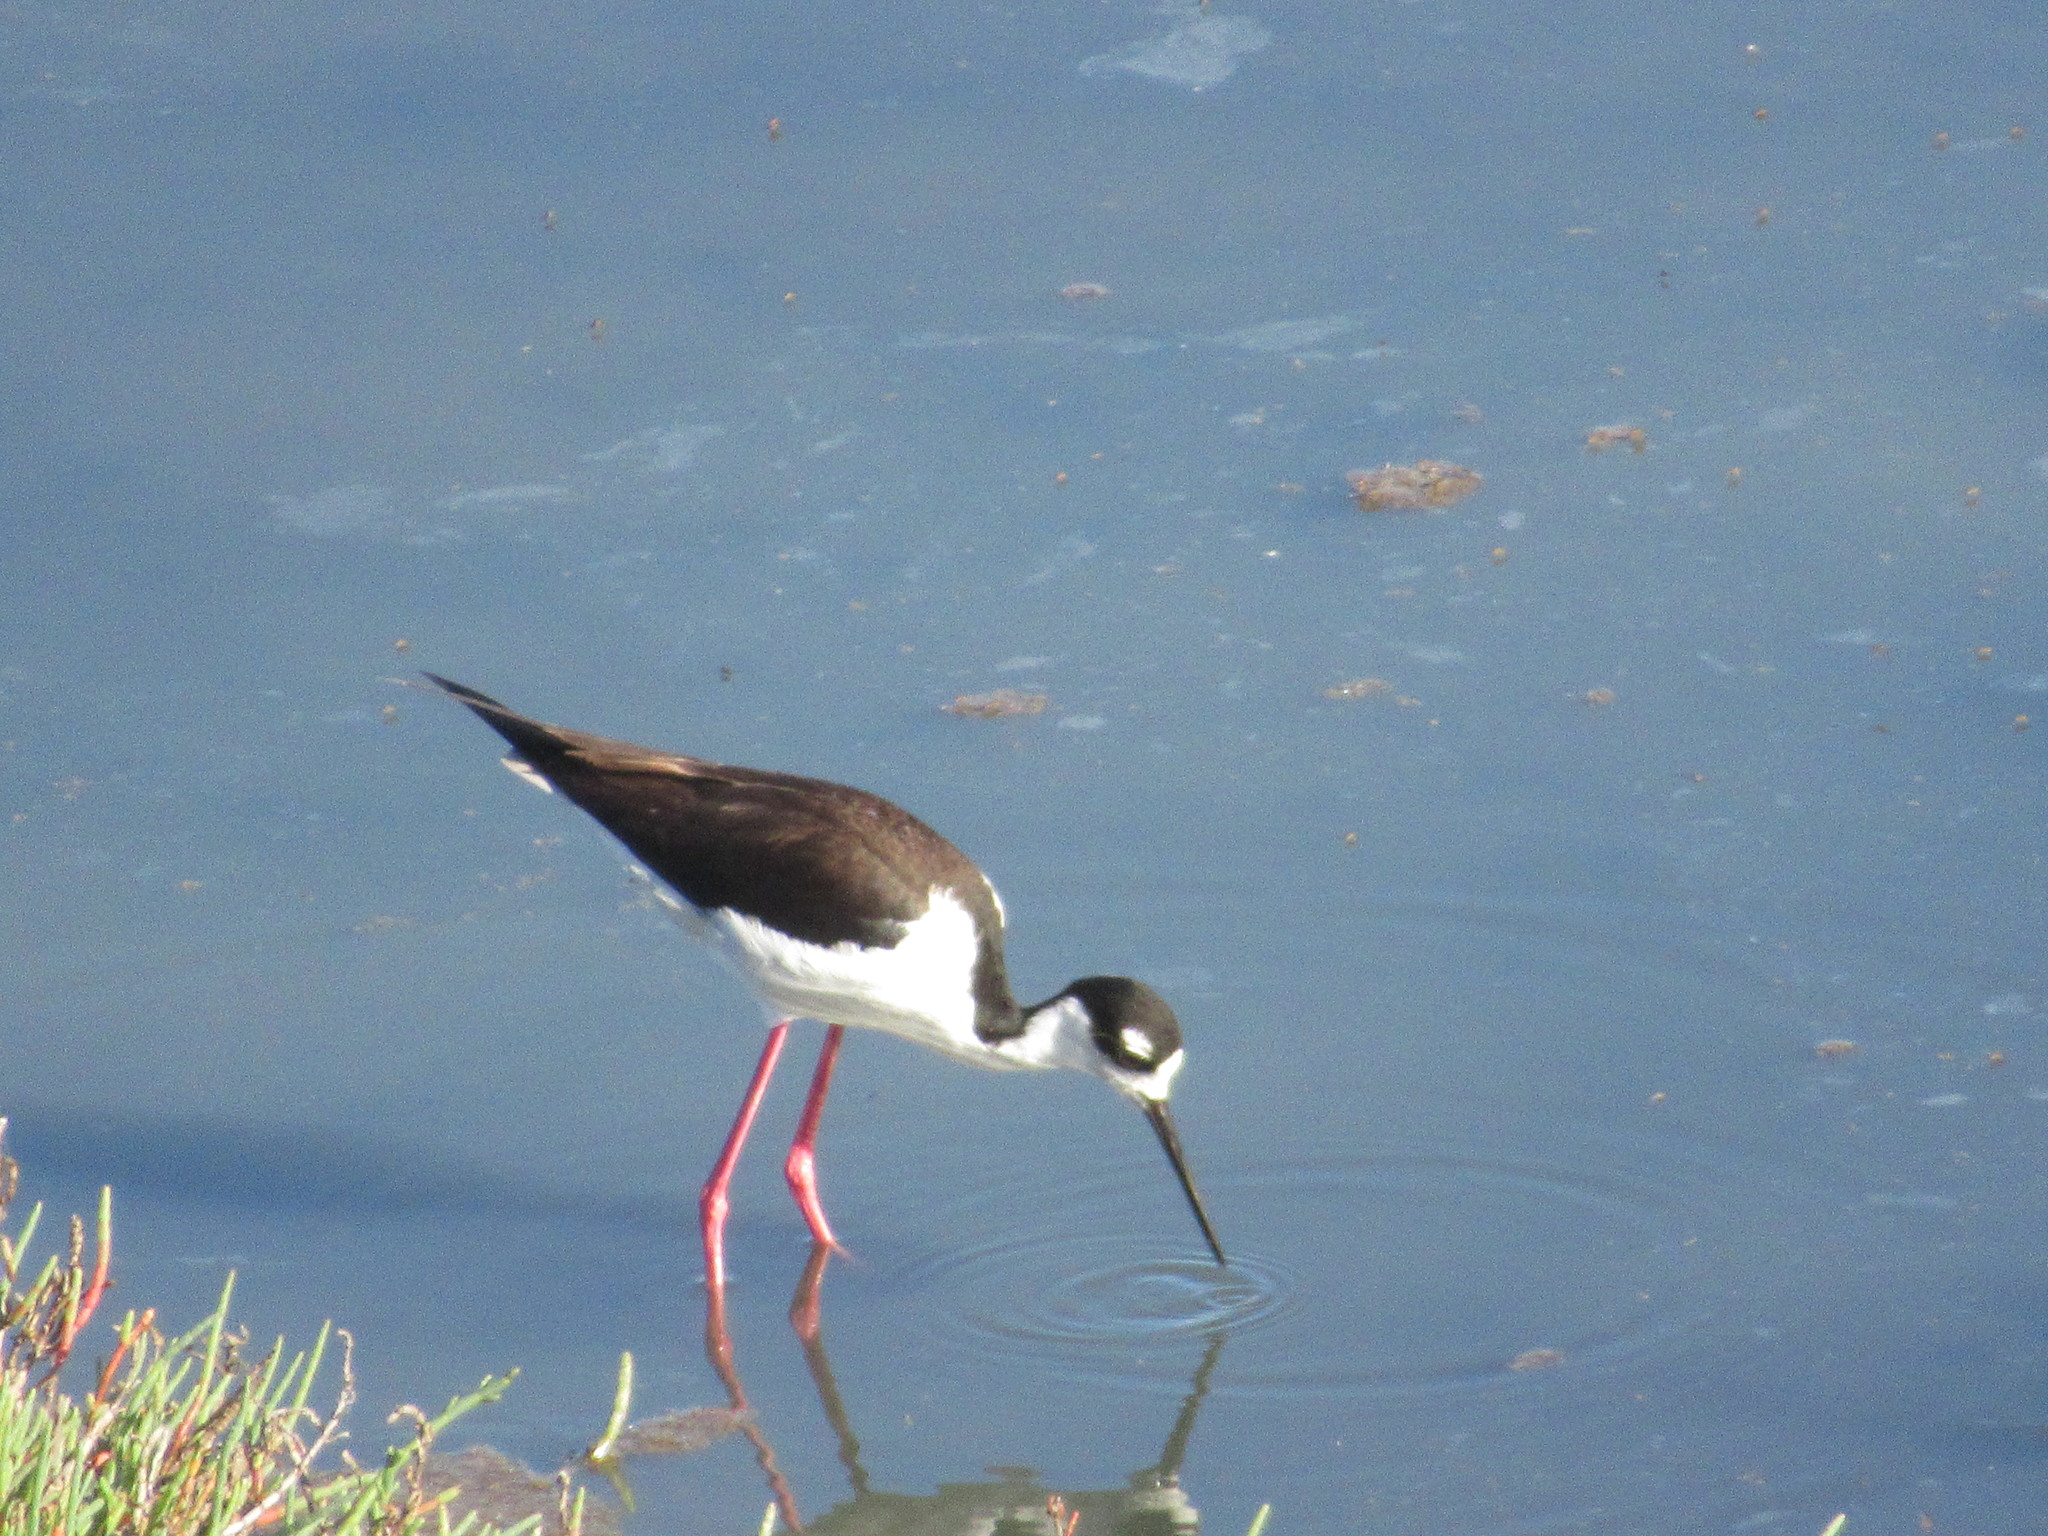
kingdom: Animalia
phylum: Chordata
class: Aves
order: Charadriiformes
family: Recurvirostridae
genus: Himantopus
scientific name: Himantopus mexicanus
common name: Black-necked stilt
